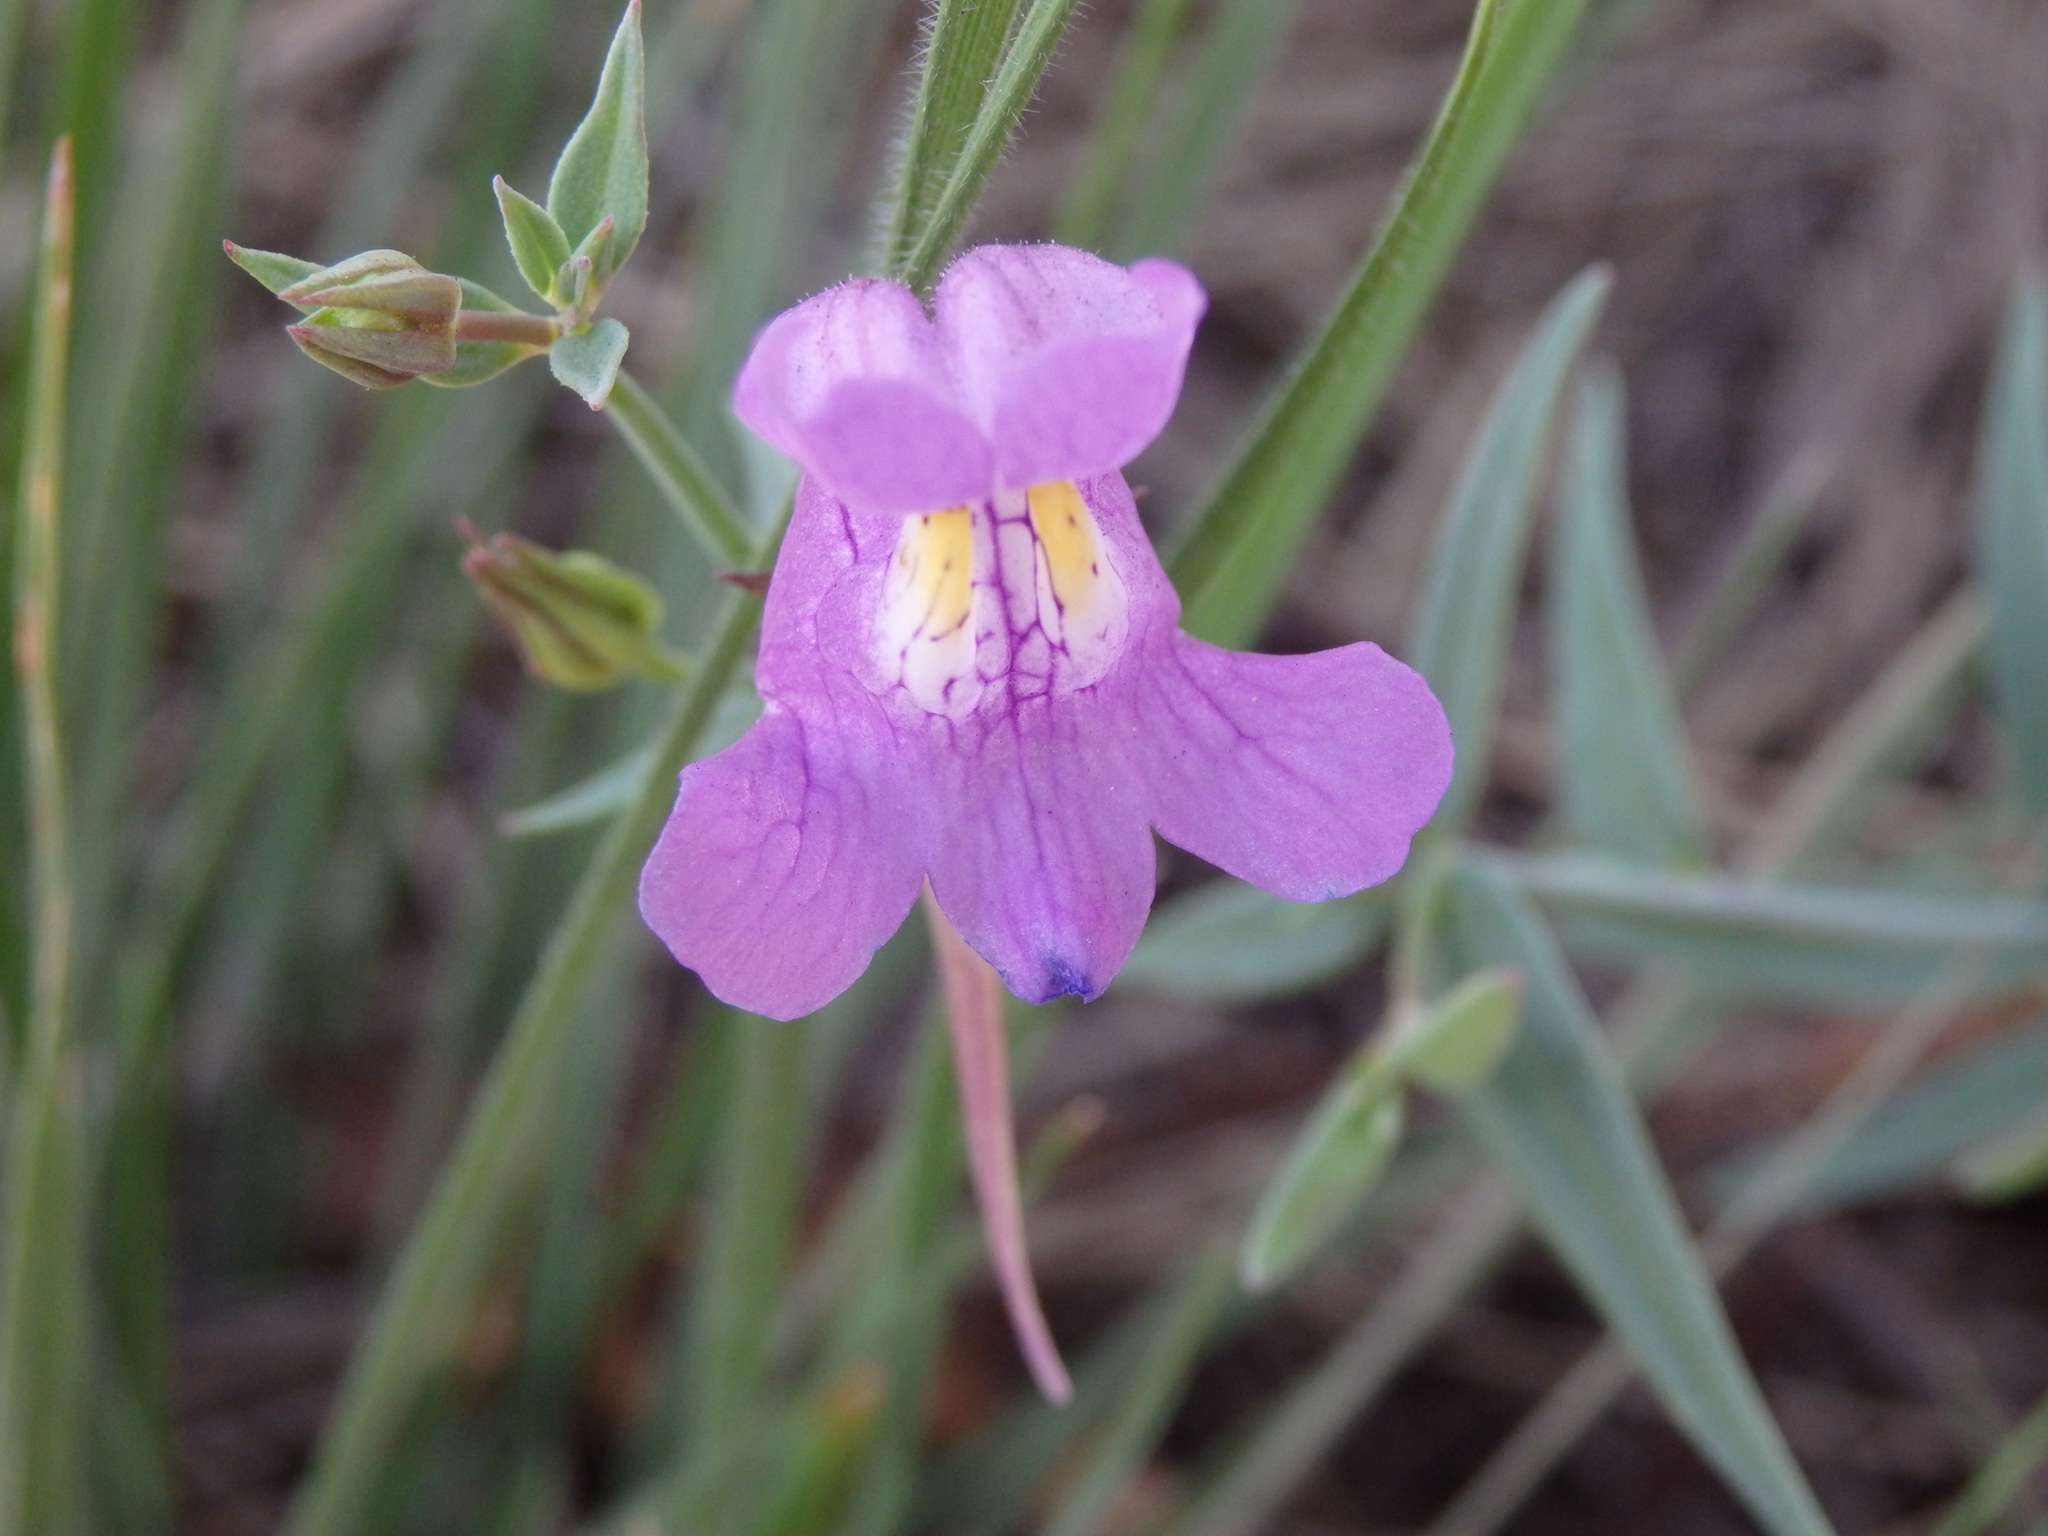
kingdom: Plantae
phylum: Tracheophyta
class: Magnoliopsida
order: Lamiales
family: Plantaginaceae
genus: Linaria
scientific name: Linaria triornithophora
